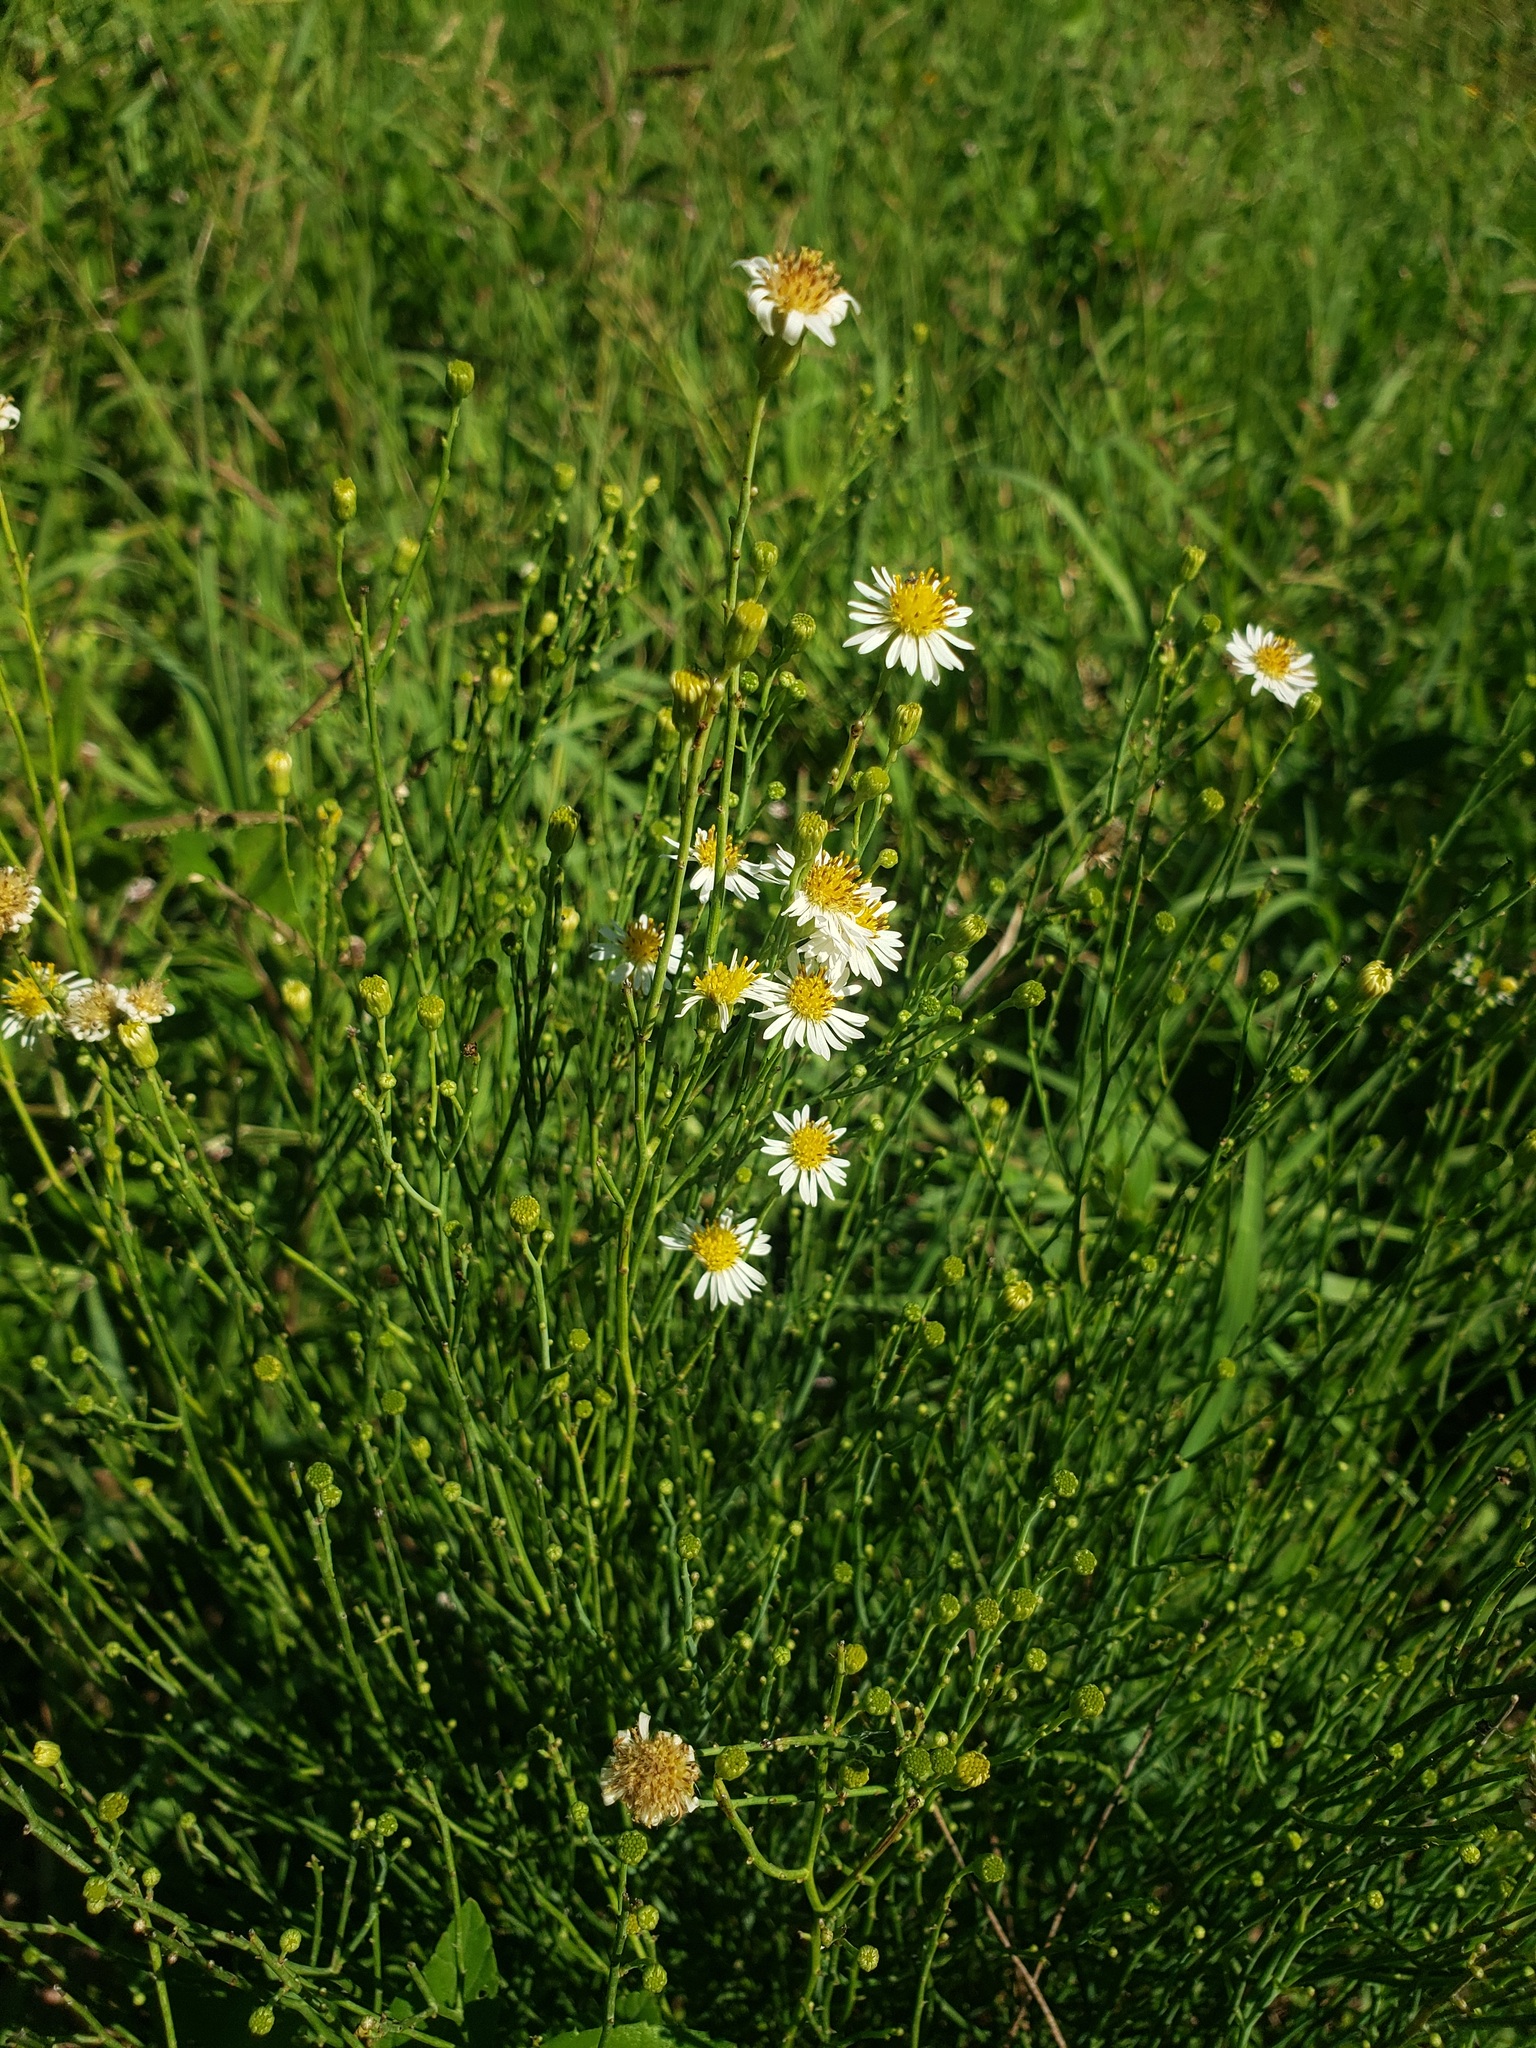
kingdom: Plantae
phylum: Tracheophyta
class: Magnoliopsida
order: Asterales
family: Asteraceae
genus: Chloracantha
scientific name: Chloracantha spinosa
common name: Mexican devilweed
